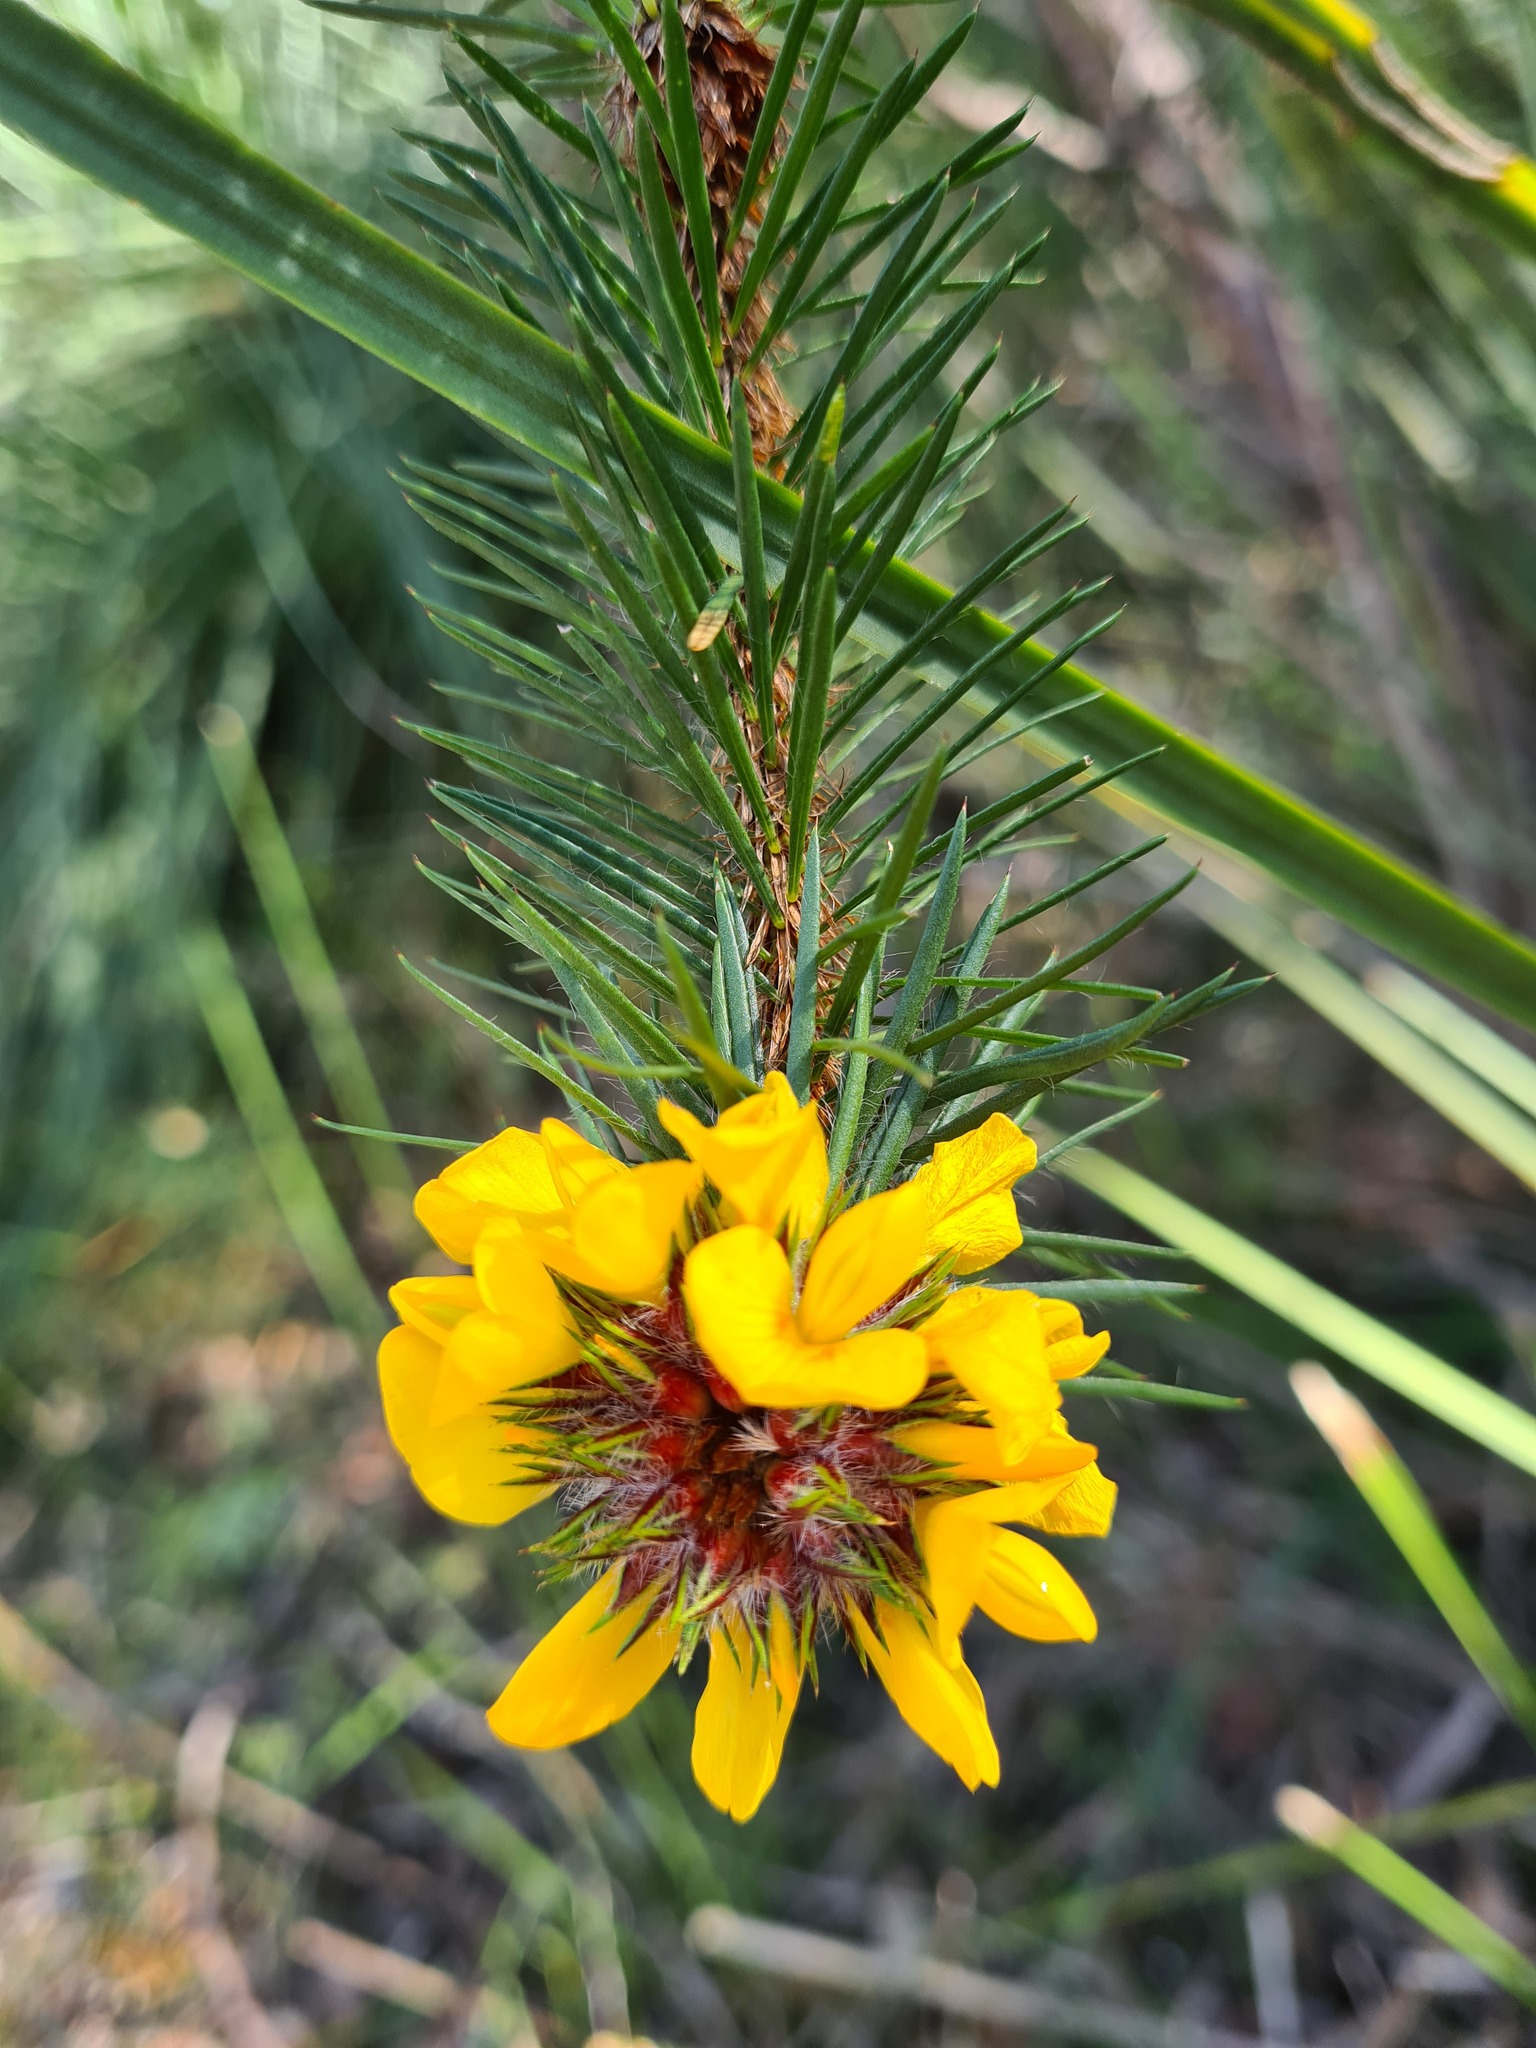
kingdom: Plantae
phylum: Tracheophyta
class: Magnoliopsida
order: Fabales
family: Fabaceae
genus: Pultenaea
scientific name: Pultenaea stipularis
